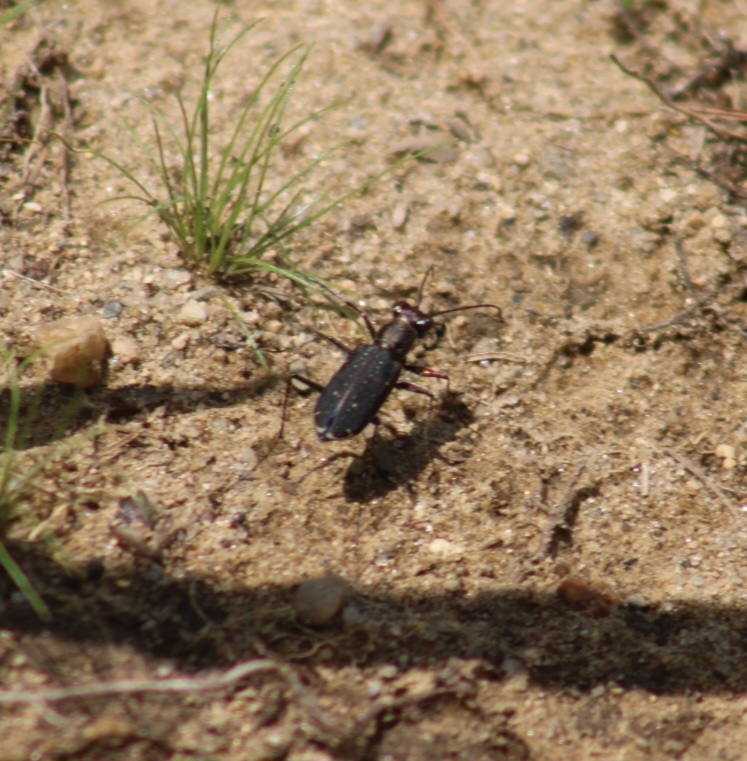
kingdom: Animalia
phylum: Arthropoda
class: Insecta
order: Coleoptera
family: Carabidae
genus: Cicindela
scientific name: Cicindela punctulata
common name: Punctured tiger beetle
